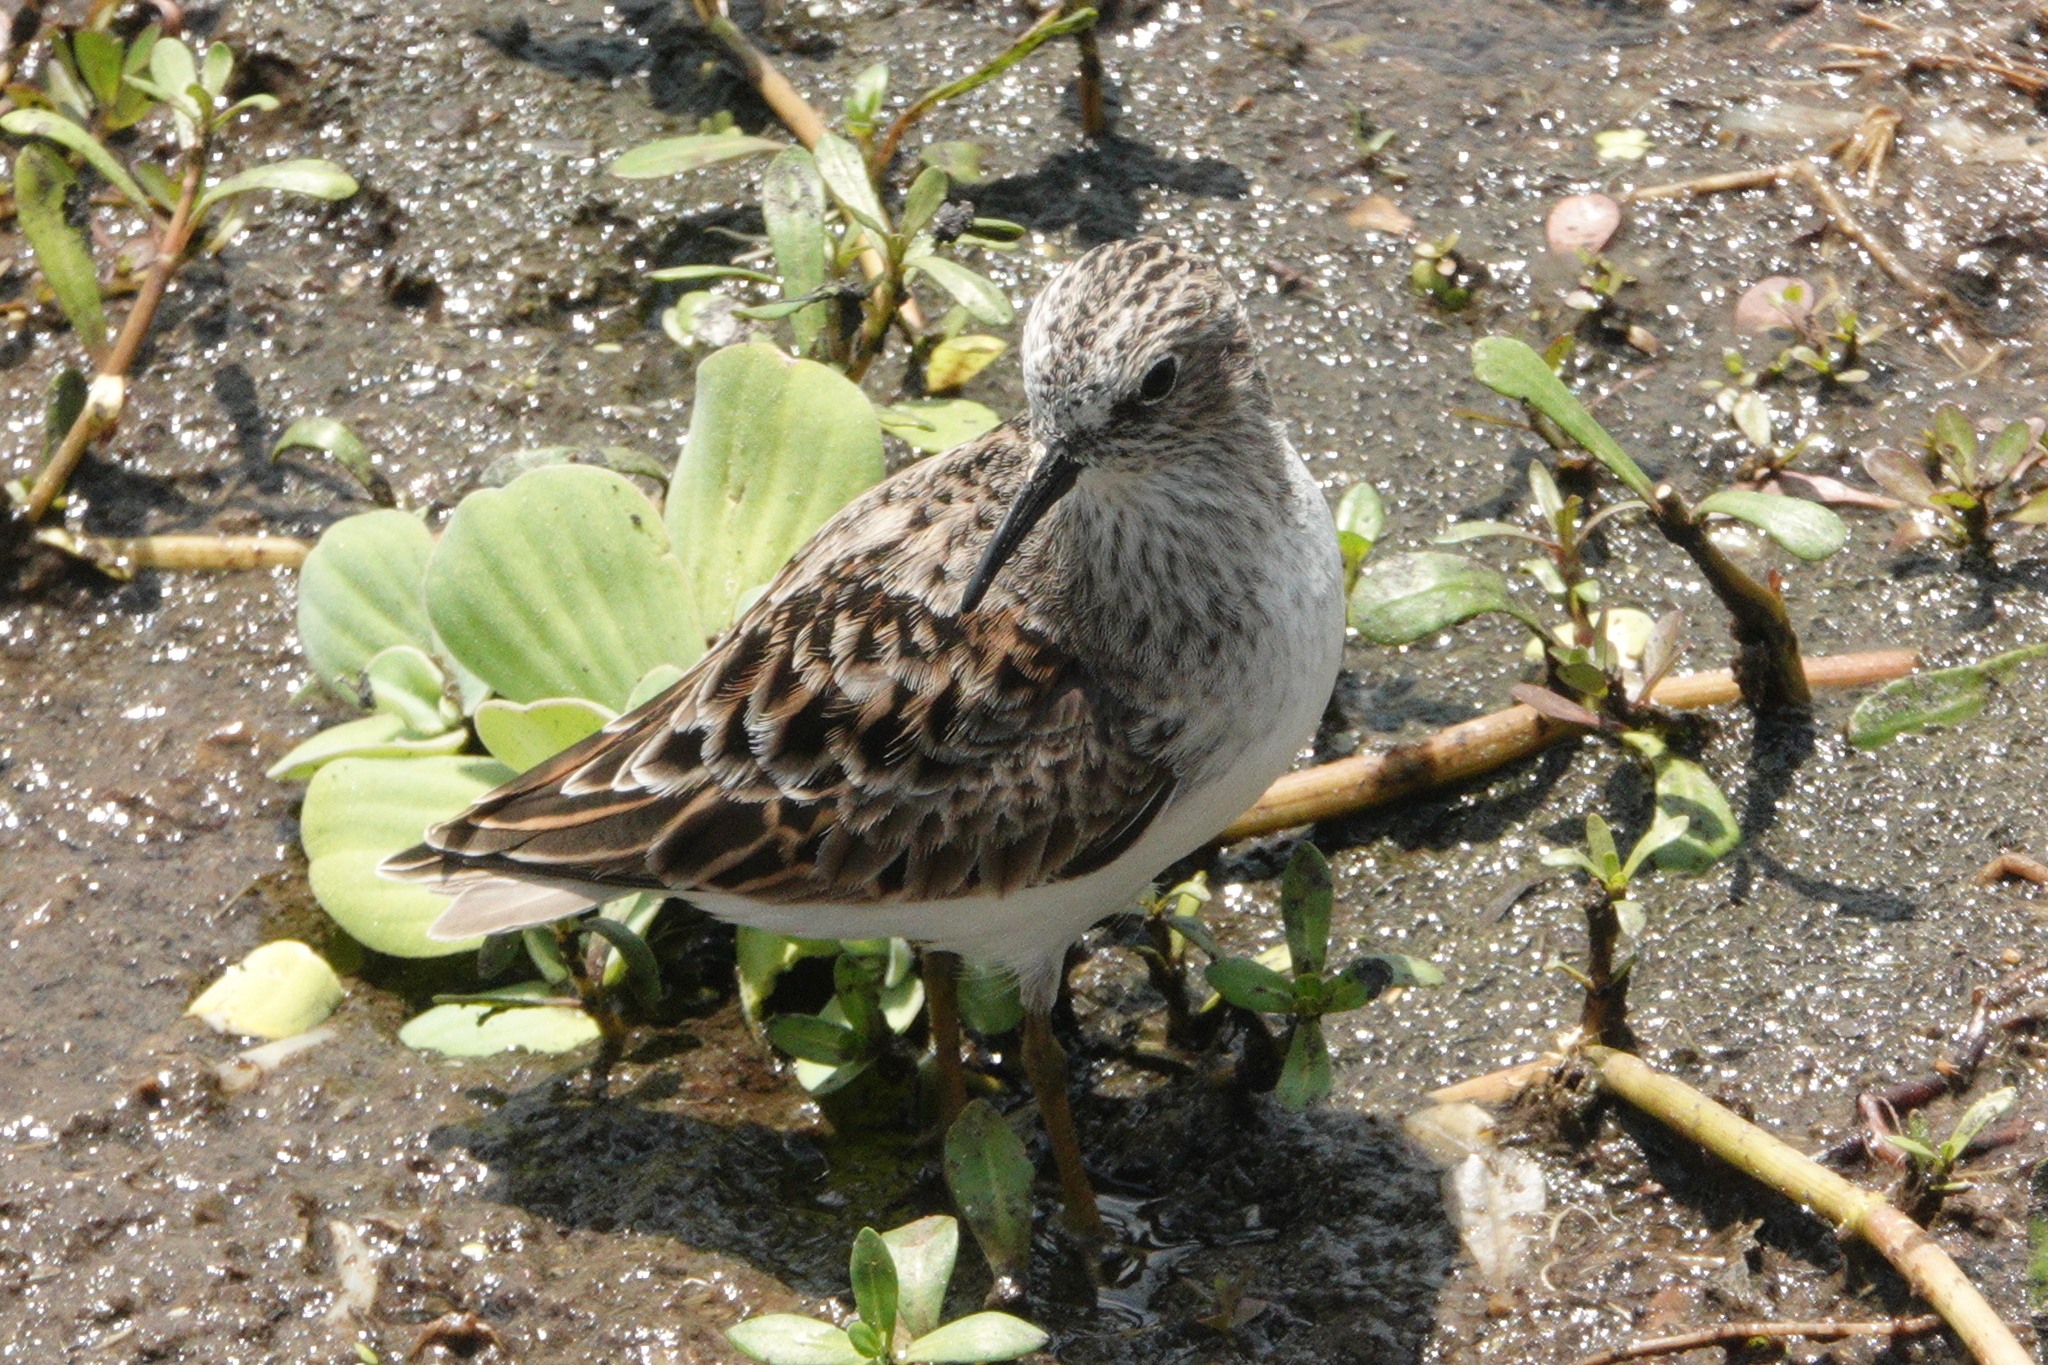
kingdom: Animalia
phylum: Chordata
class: Aves
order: Charadriiformes
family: Scolopacidae
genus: Calidris
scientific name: Calidris minutilla
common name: Least sandpiper
